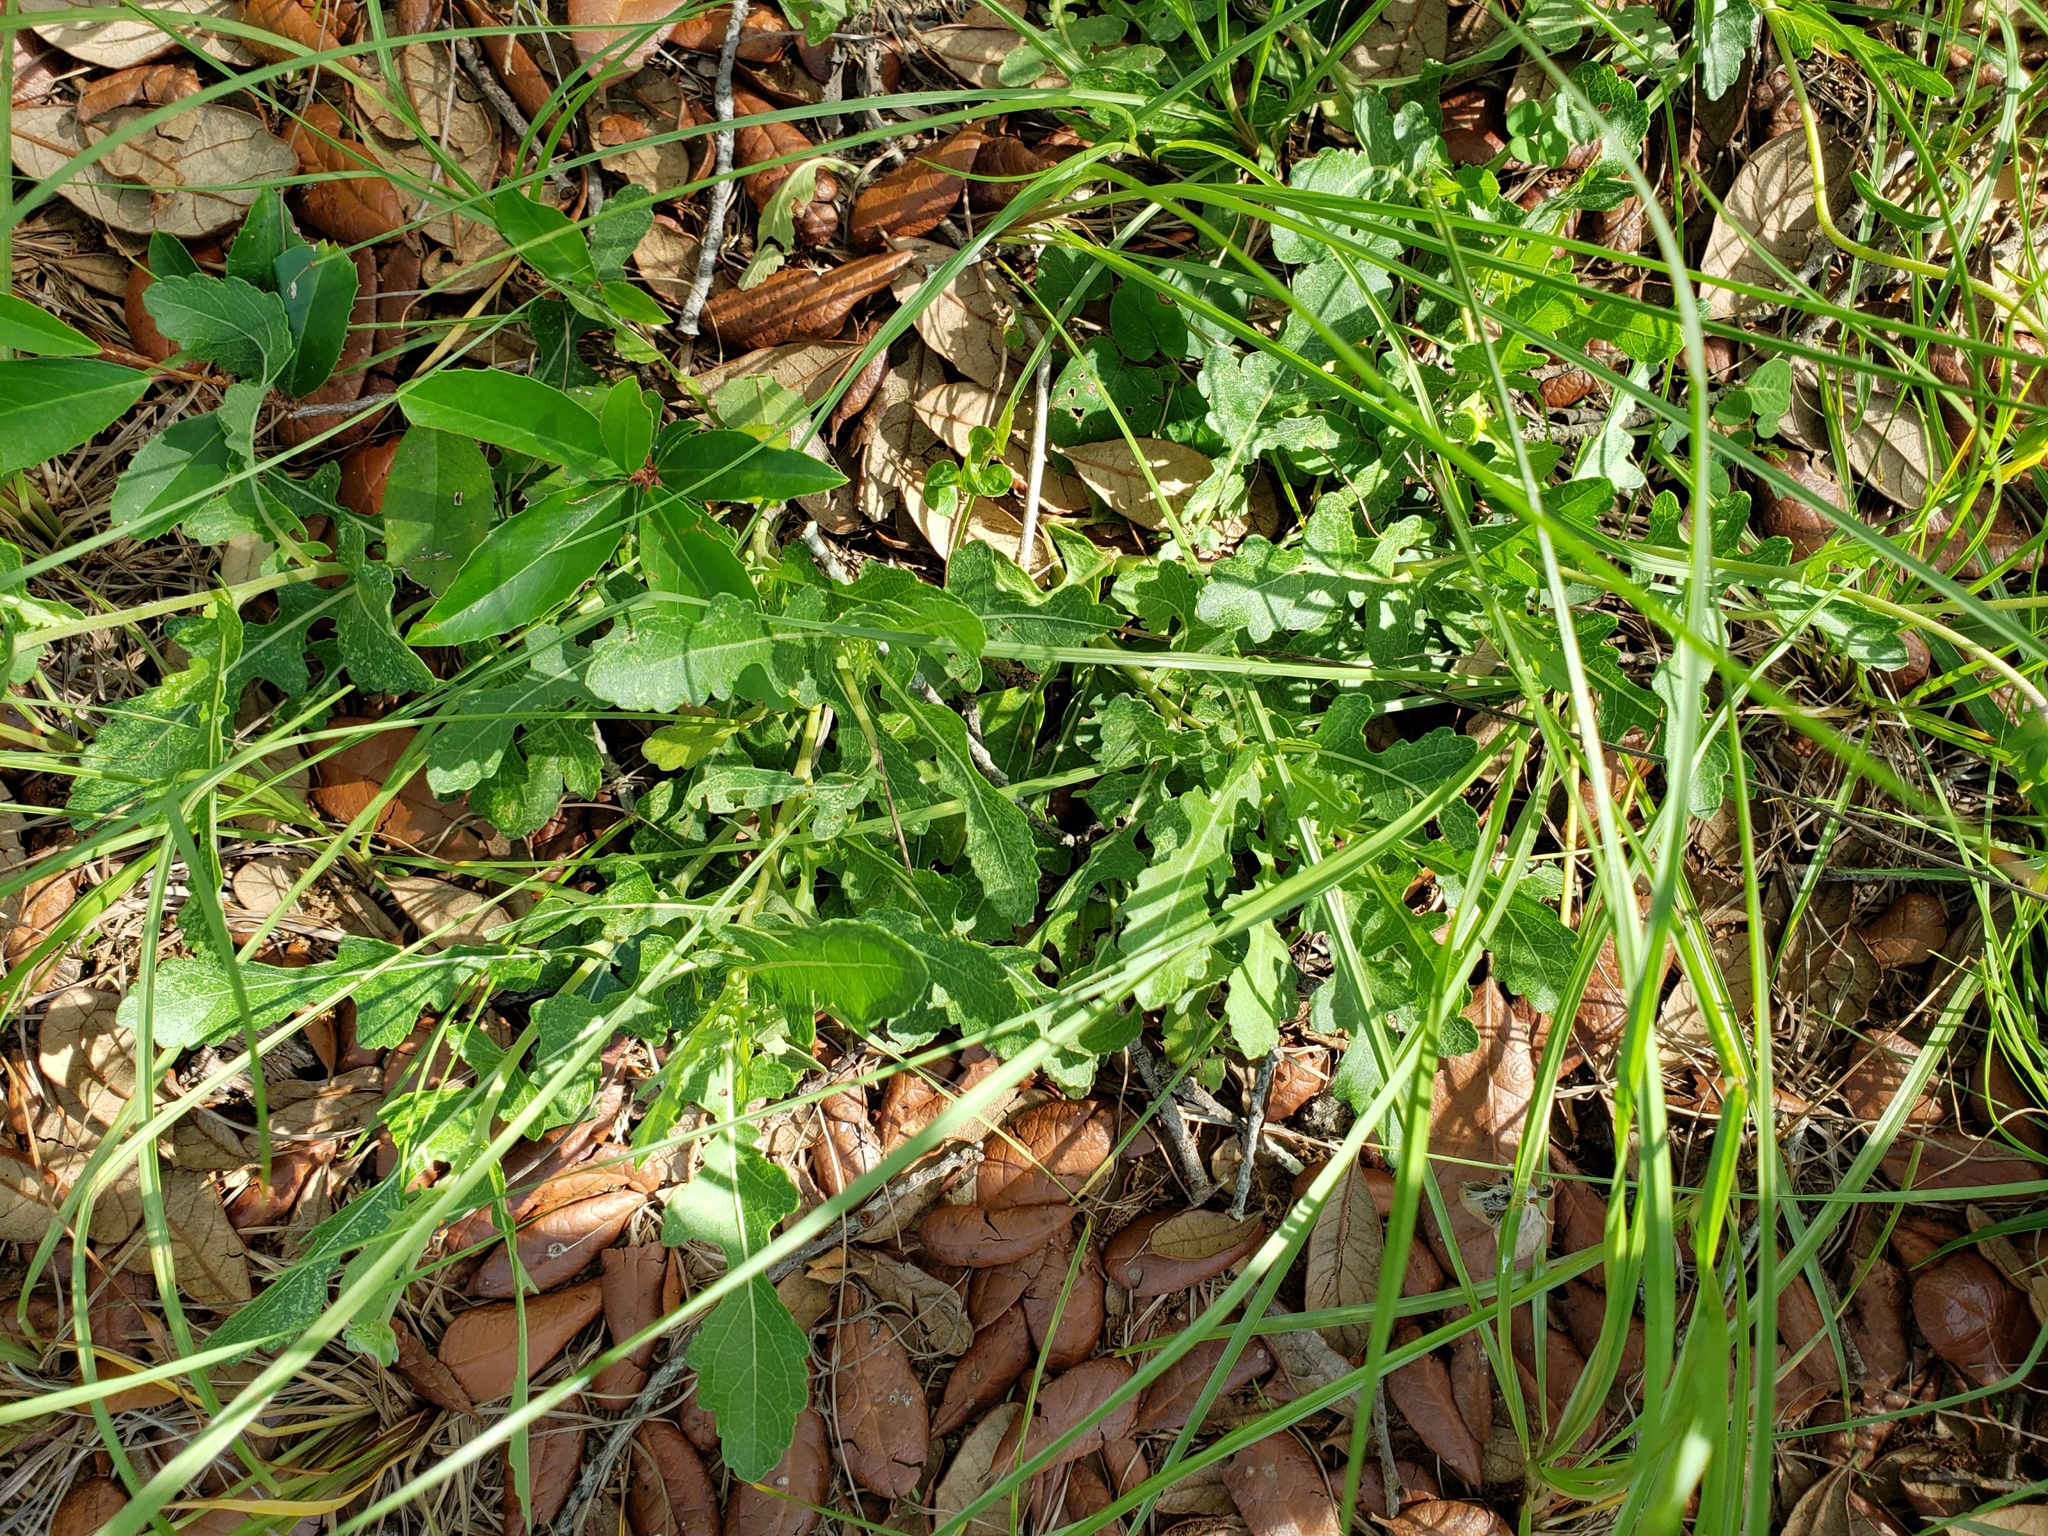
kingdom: Plantae
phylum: Tracheophyta
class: Magnoliopsida
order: Asterales
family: Asteraceae
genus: Berlandiera
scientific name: Berlandiera subacaulis
